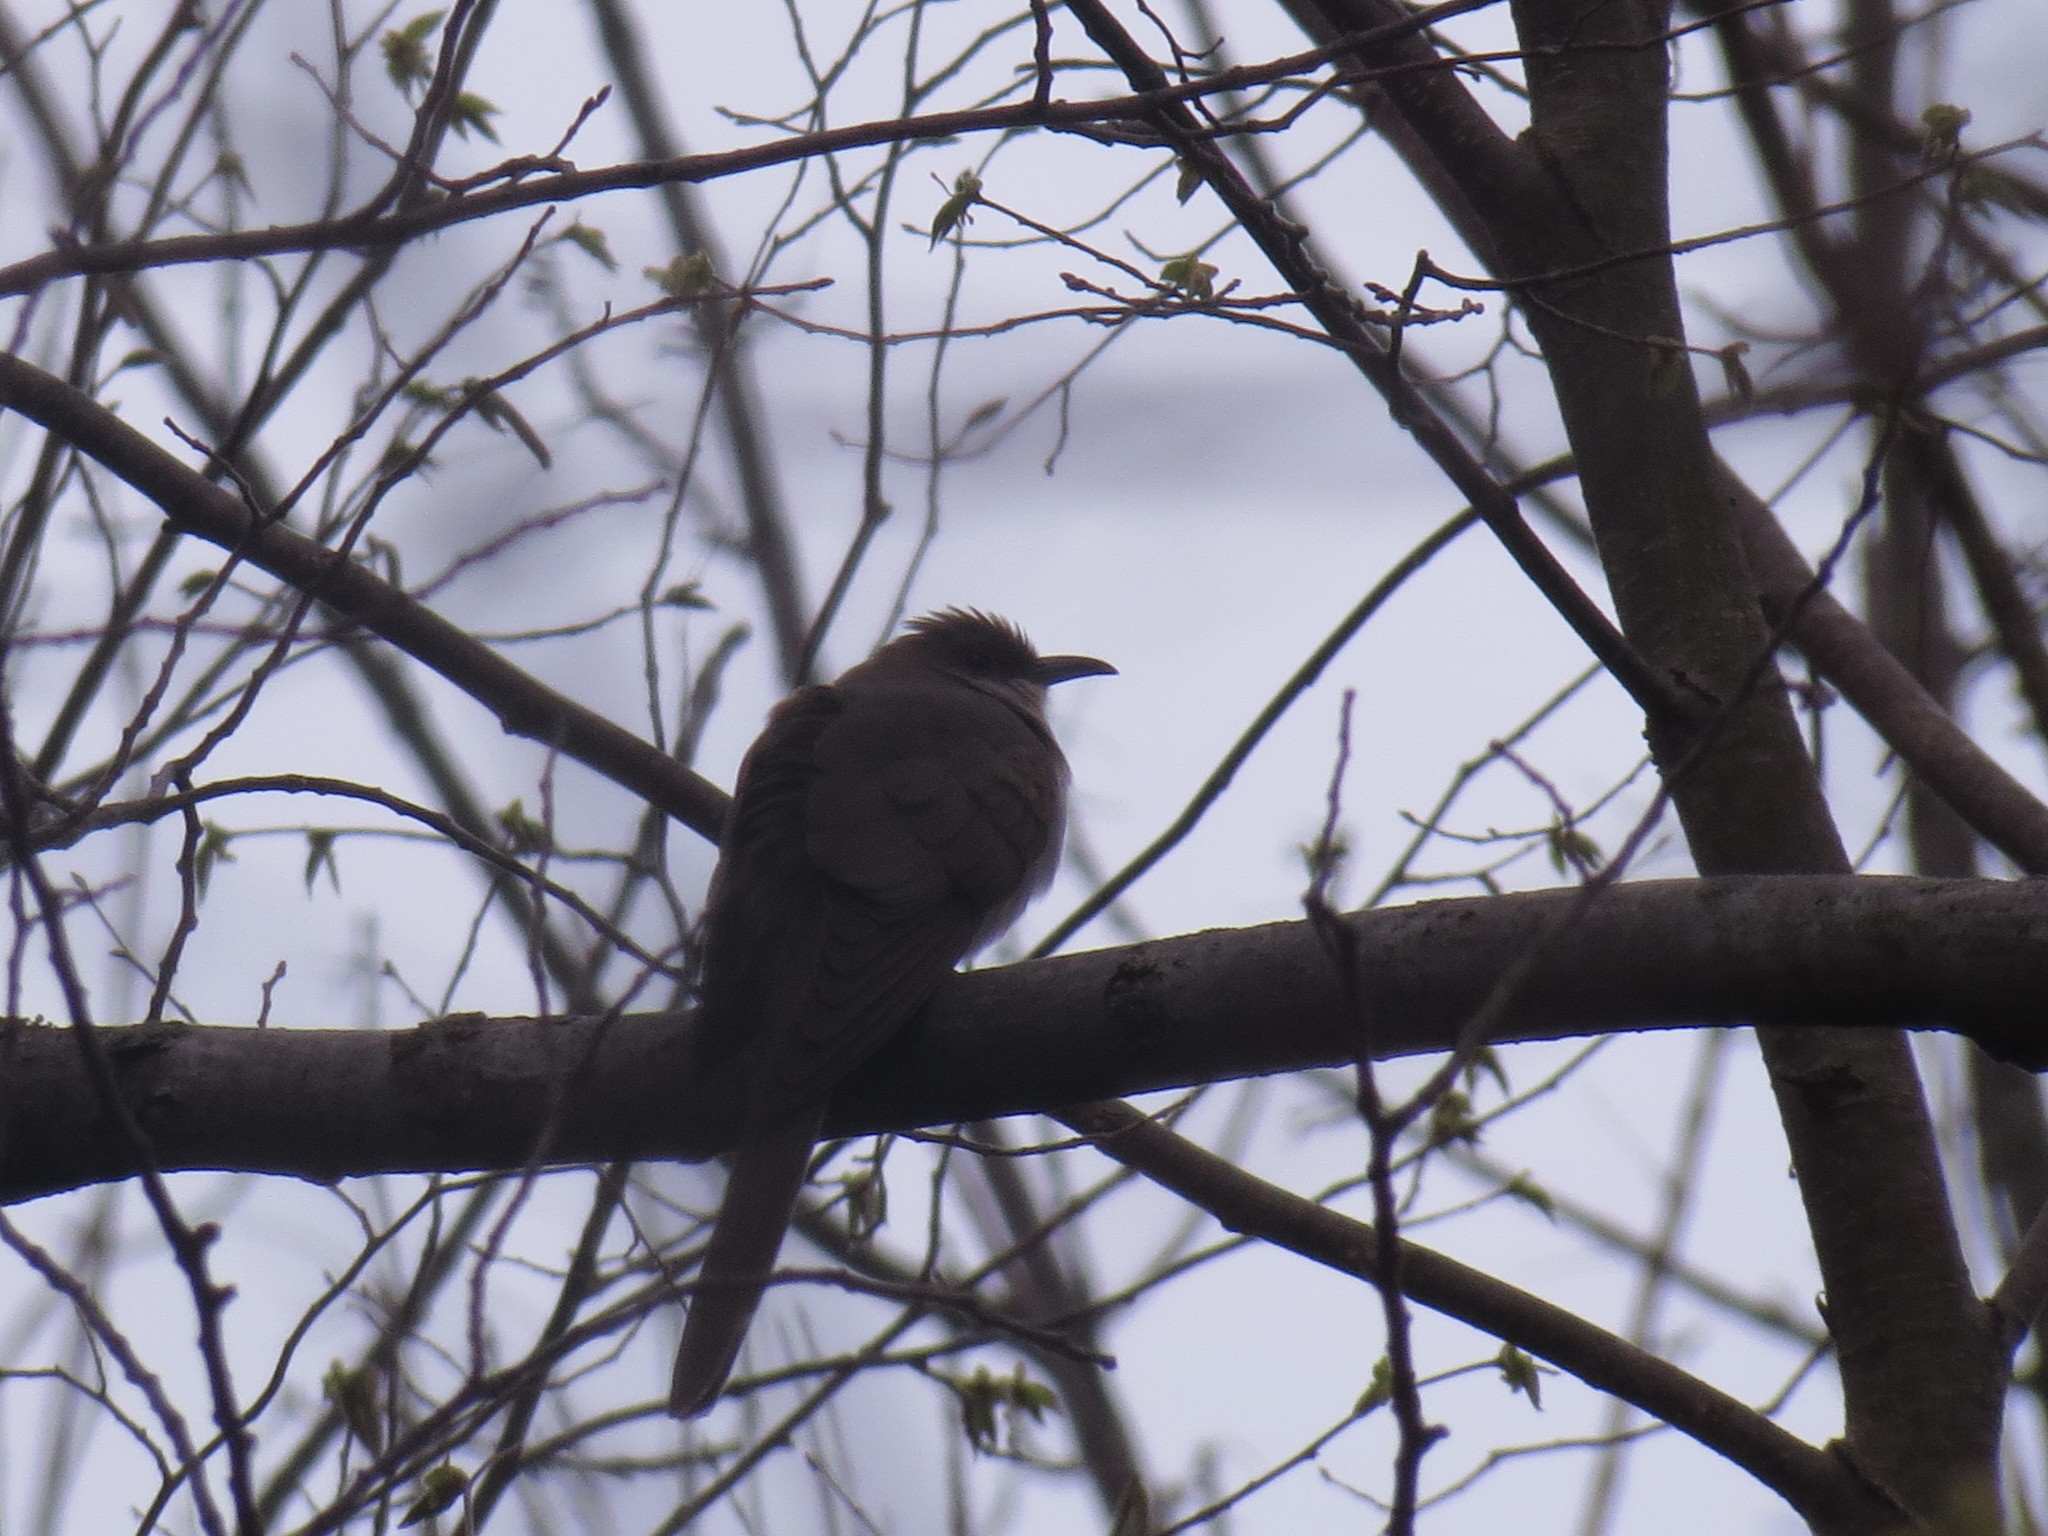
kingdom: Animalia
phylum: Chordata
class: Aves
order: Cuculiformes
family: Cuculidae
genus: Coccyzus
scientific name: Coccyzus erythropthalmus
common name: Black-billed cuckoo
